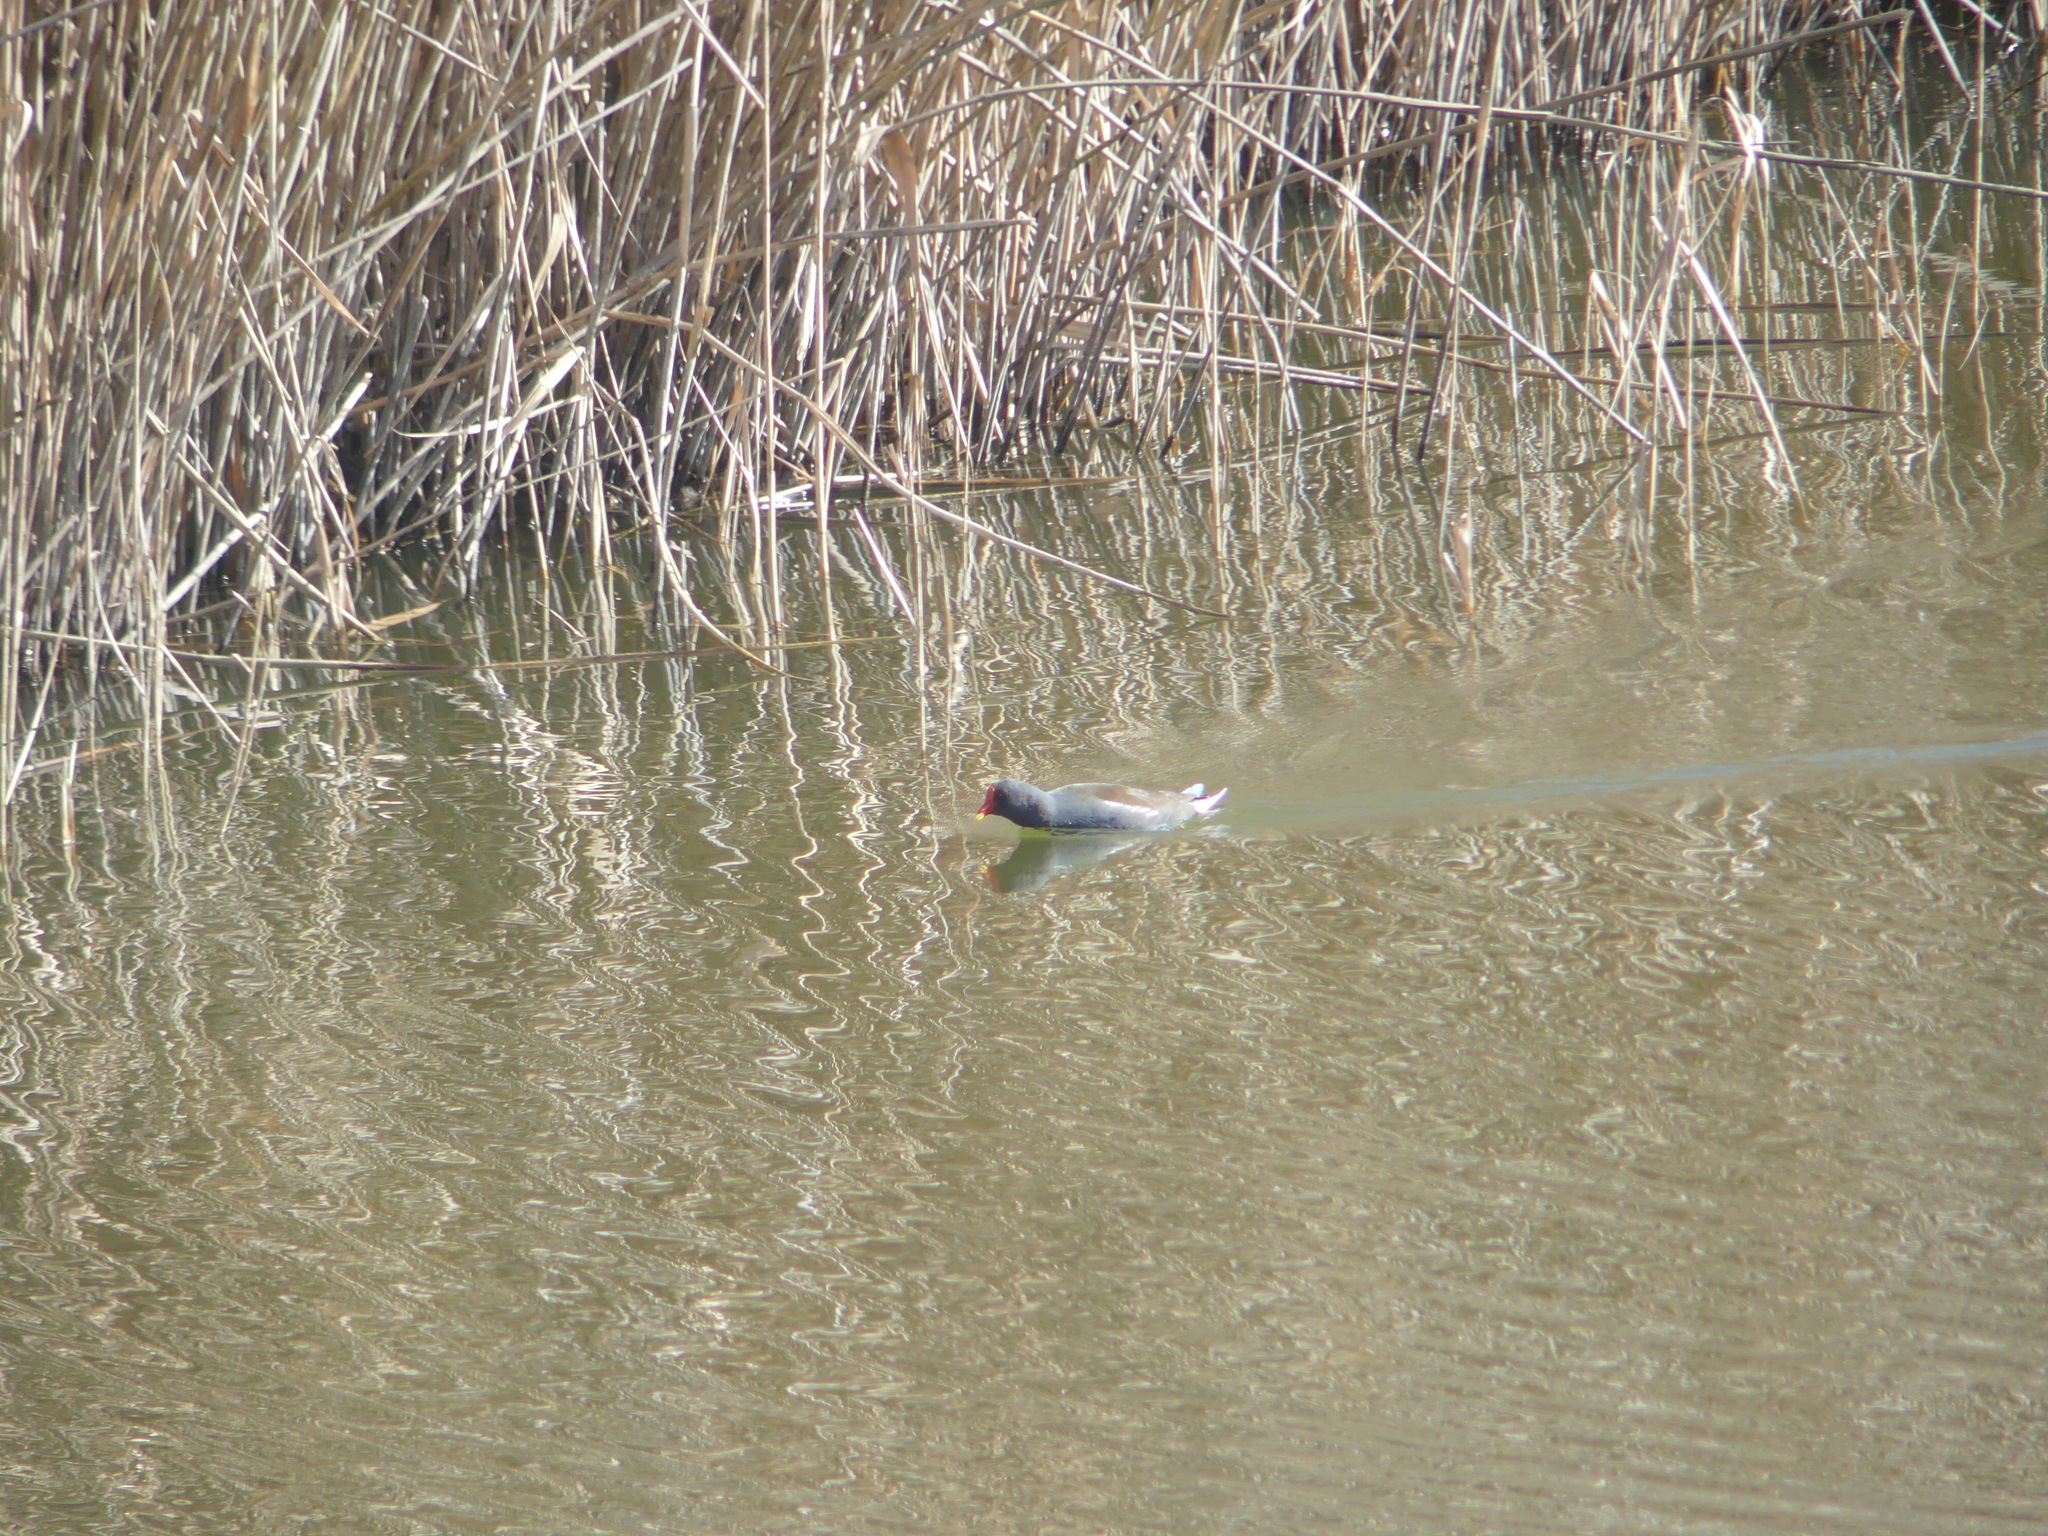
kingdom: Animalia
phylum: Chordata
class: Aves
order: Gruiformes
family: Rallidae
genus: Gallinula
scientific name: Gallinula chloropus
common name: Common moorhen
